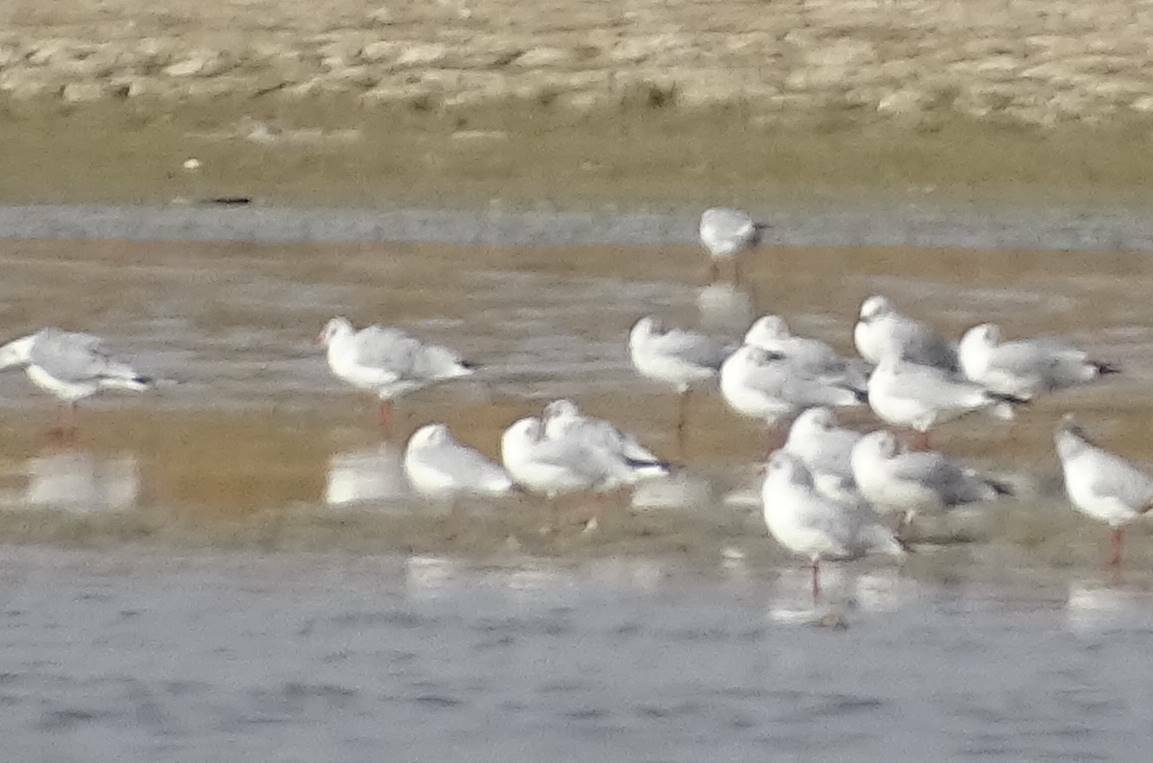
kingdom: Animalia
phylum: Chordata
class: Aves
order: Charadriiformes
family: Laridae
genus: Chroicocephalus
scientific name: Chroicocephalus ridibundus
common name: Black-headed gull
